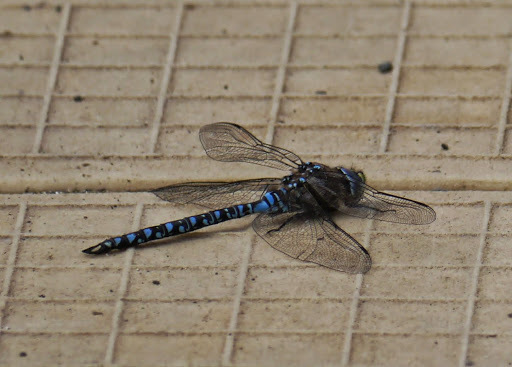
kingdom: Animalia
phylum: Arthropoda
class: Insecta
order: Odonata
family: Aeshnidae
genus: Aeshna
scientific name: Aeshna interrupta
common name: Variable darner
